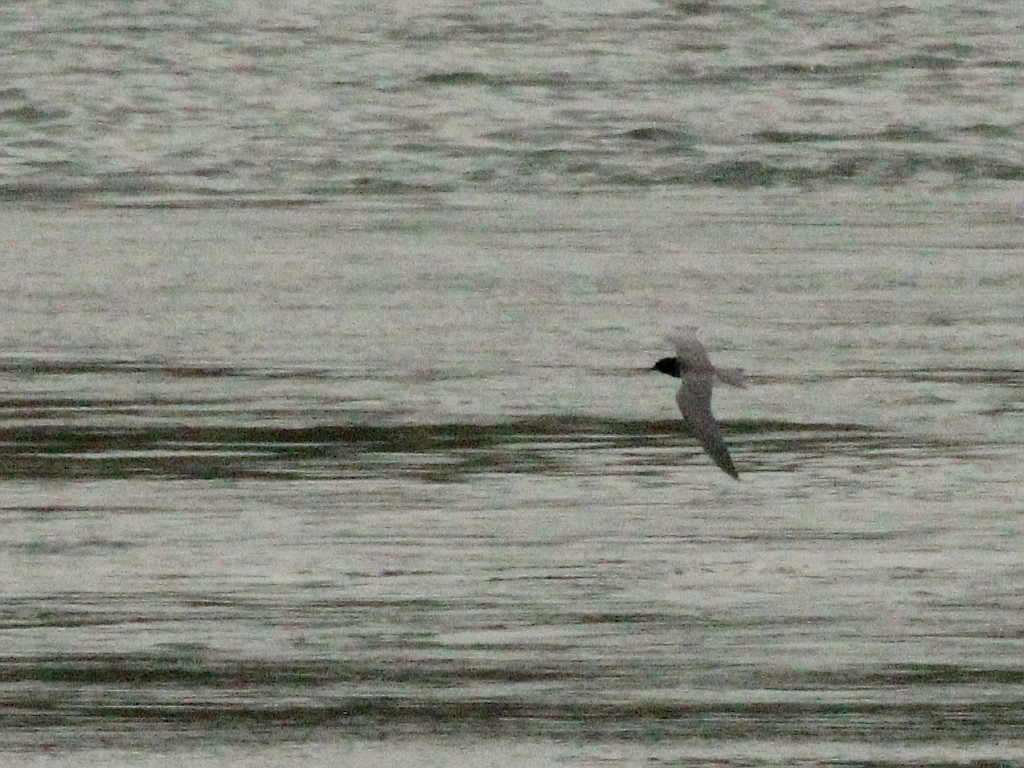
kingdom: Animalia
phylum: Chordata
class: Aves
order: Charadriiformes
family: Laridae
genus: Chlidonias
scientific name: Chlidonias niger
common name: Black tern
